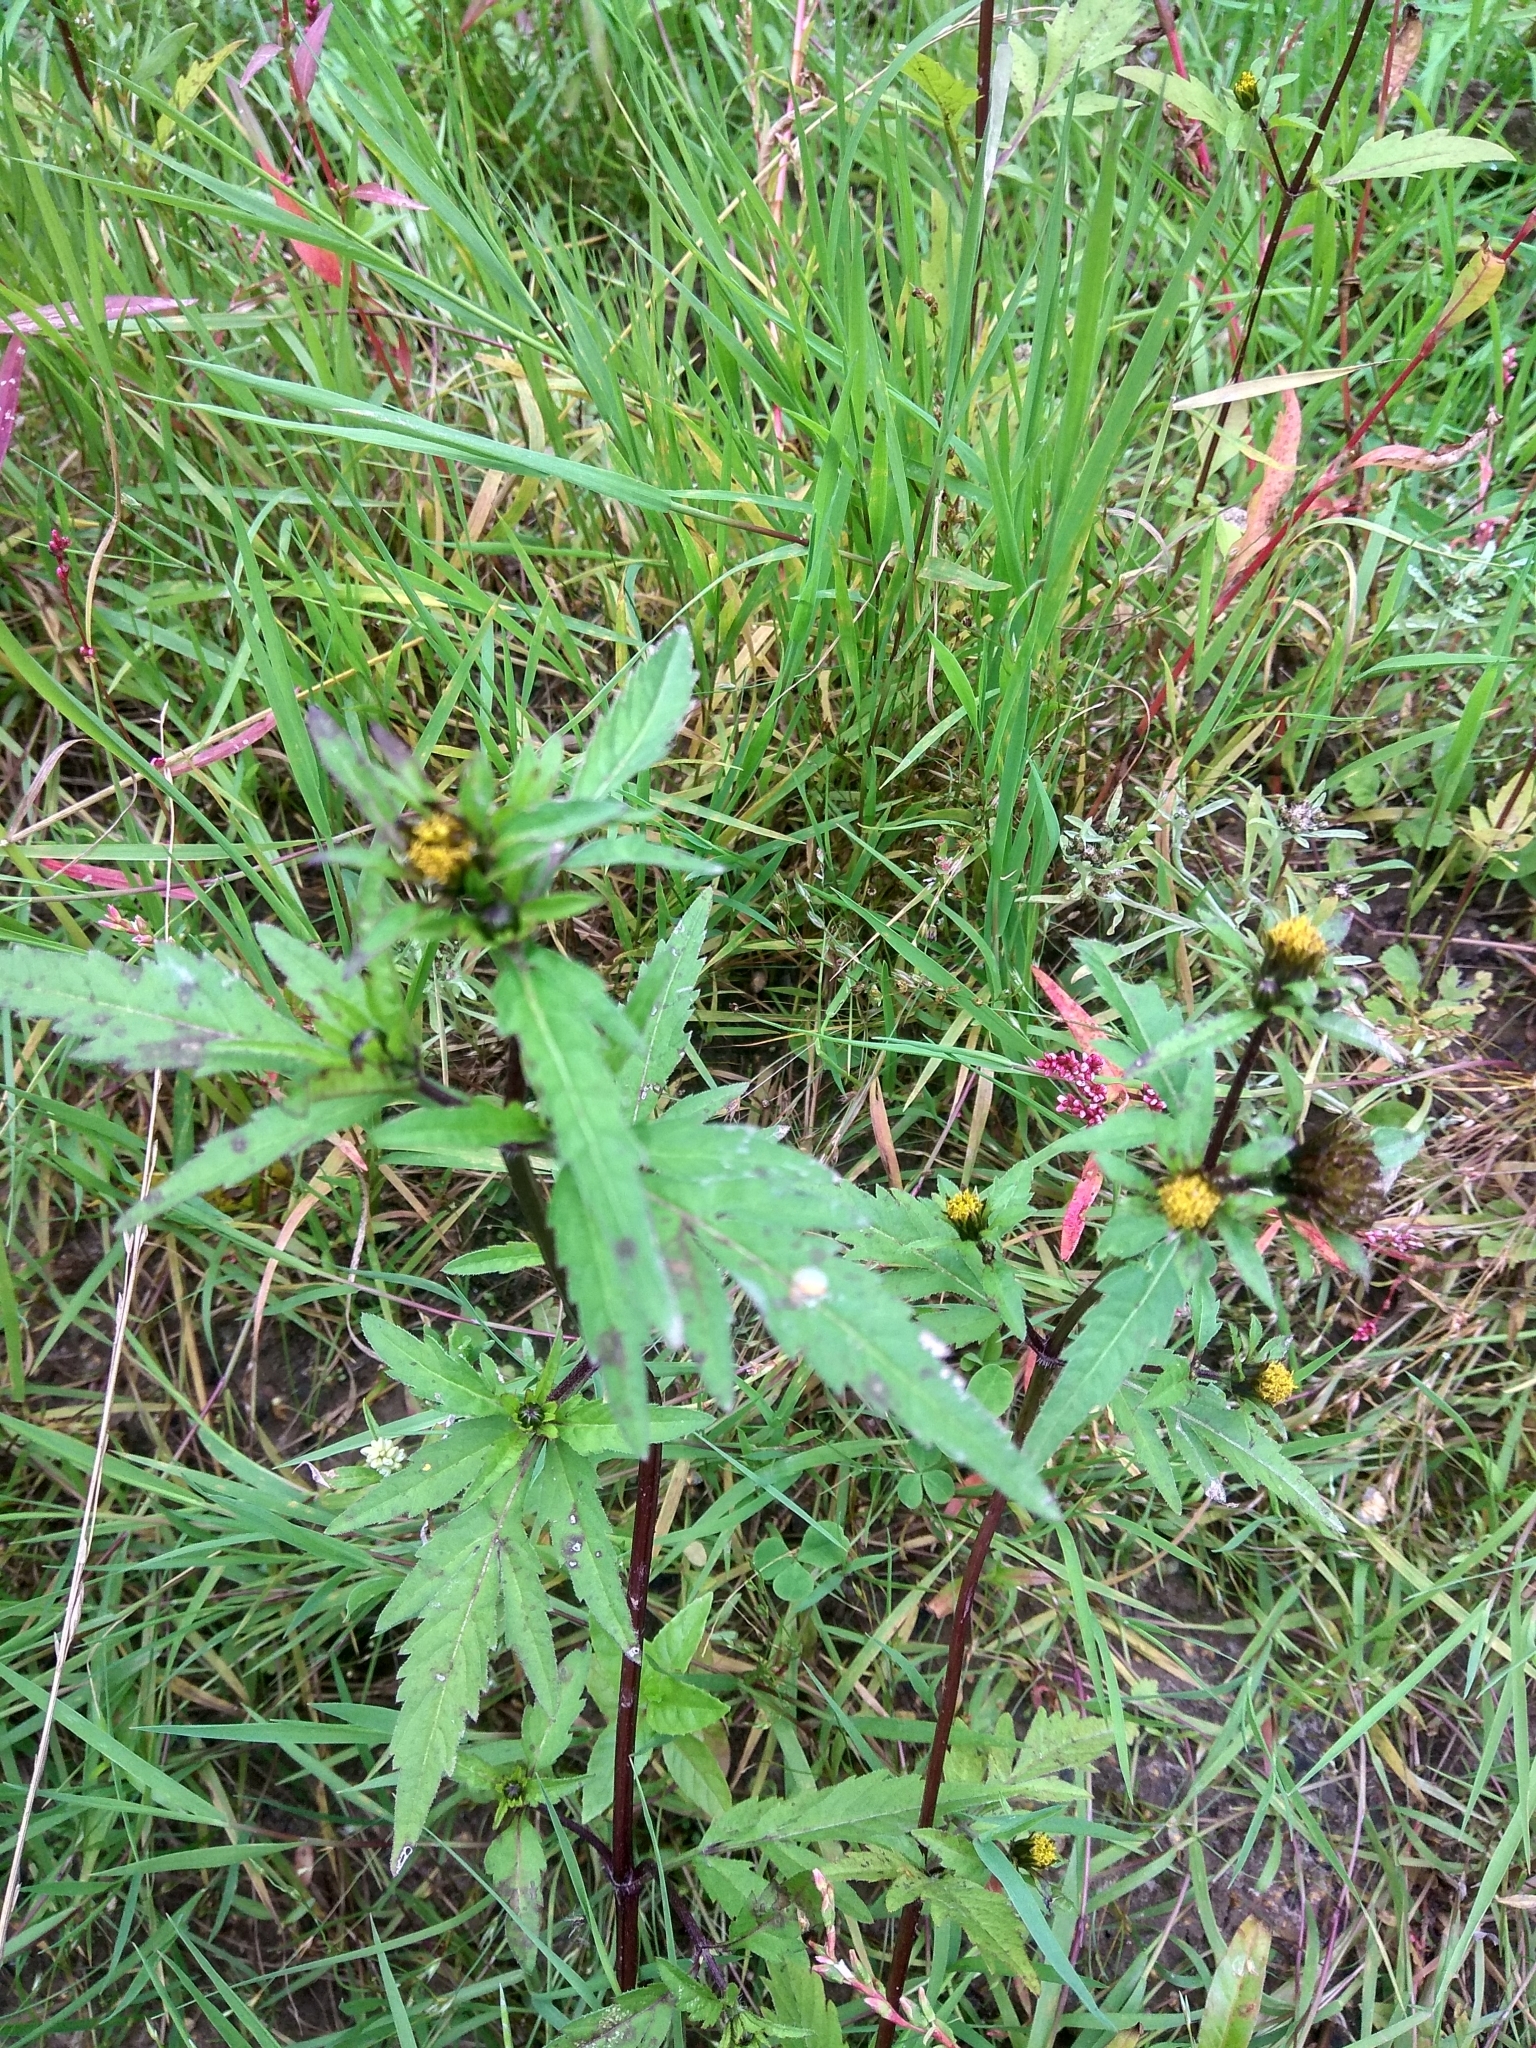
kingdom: Plantae
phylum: Tracheophyta
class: Magnoliopsida
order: Asterales
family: Asteraceae
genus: Bidens
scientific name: Bidens tripartita
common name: Trifid bur-marigold
